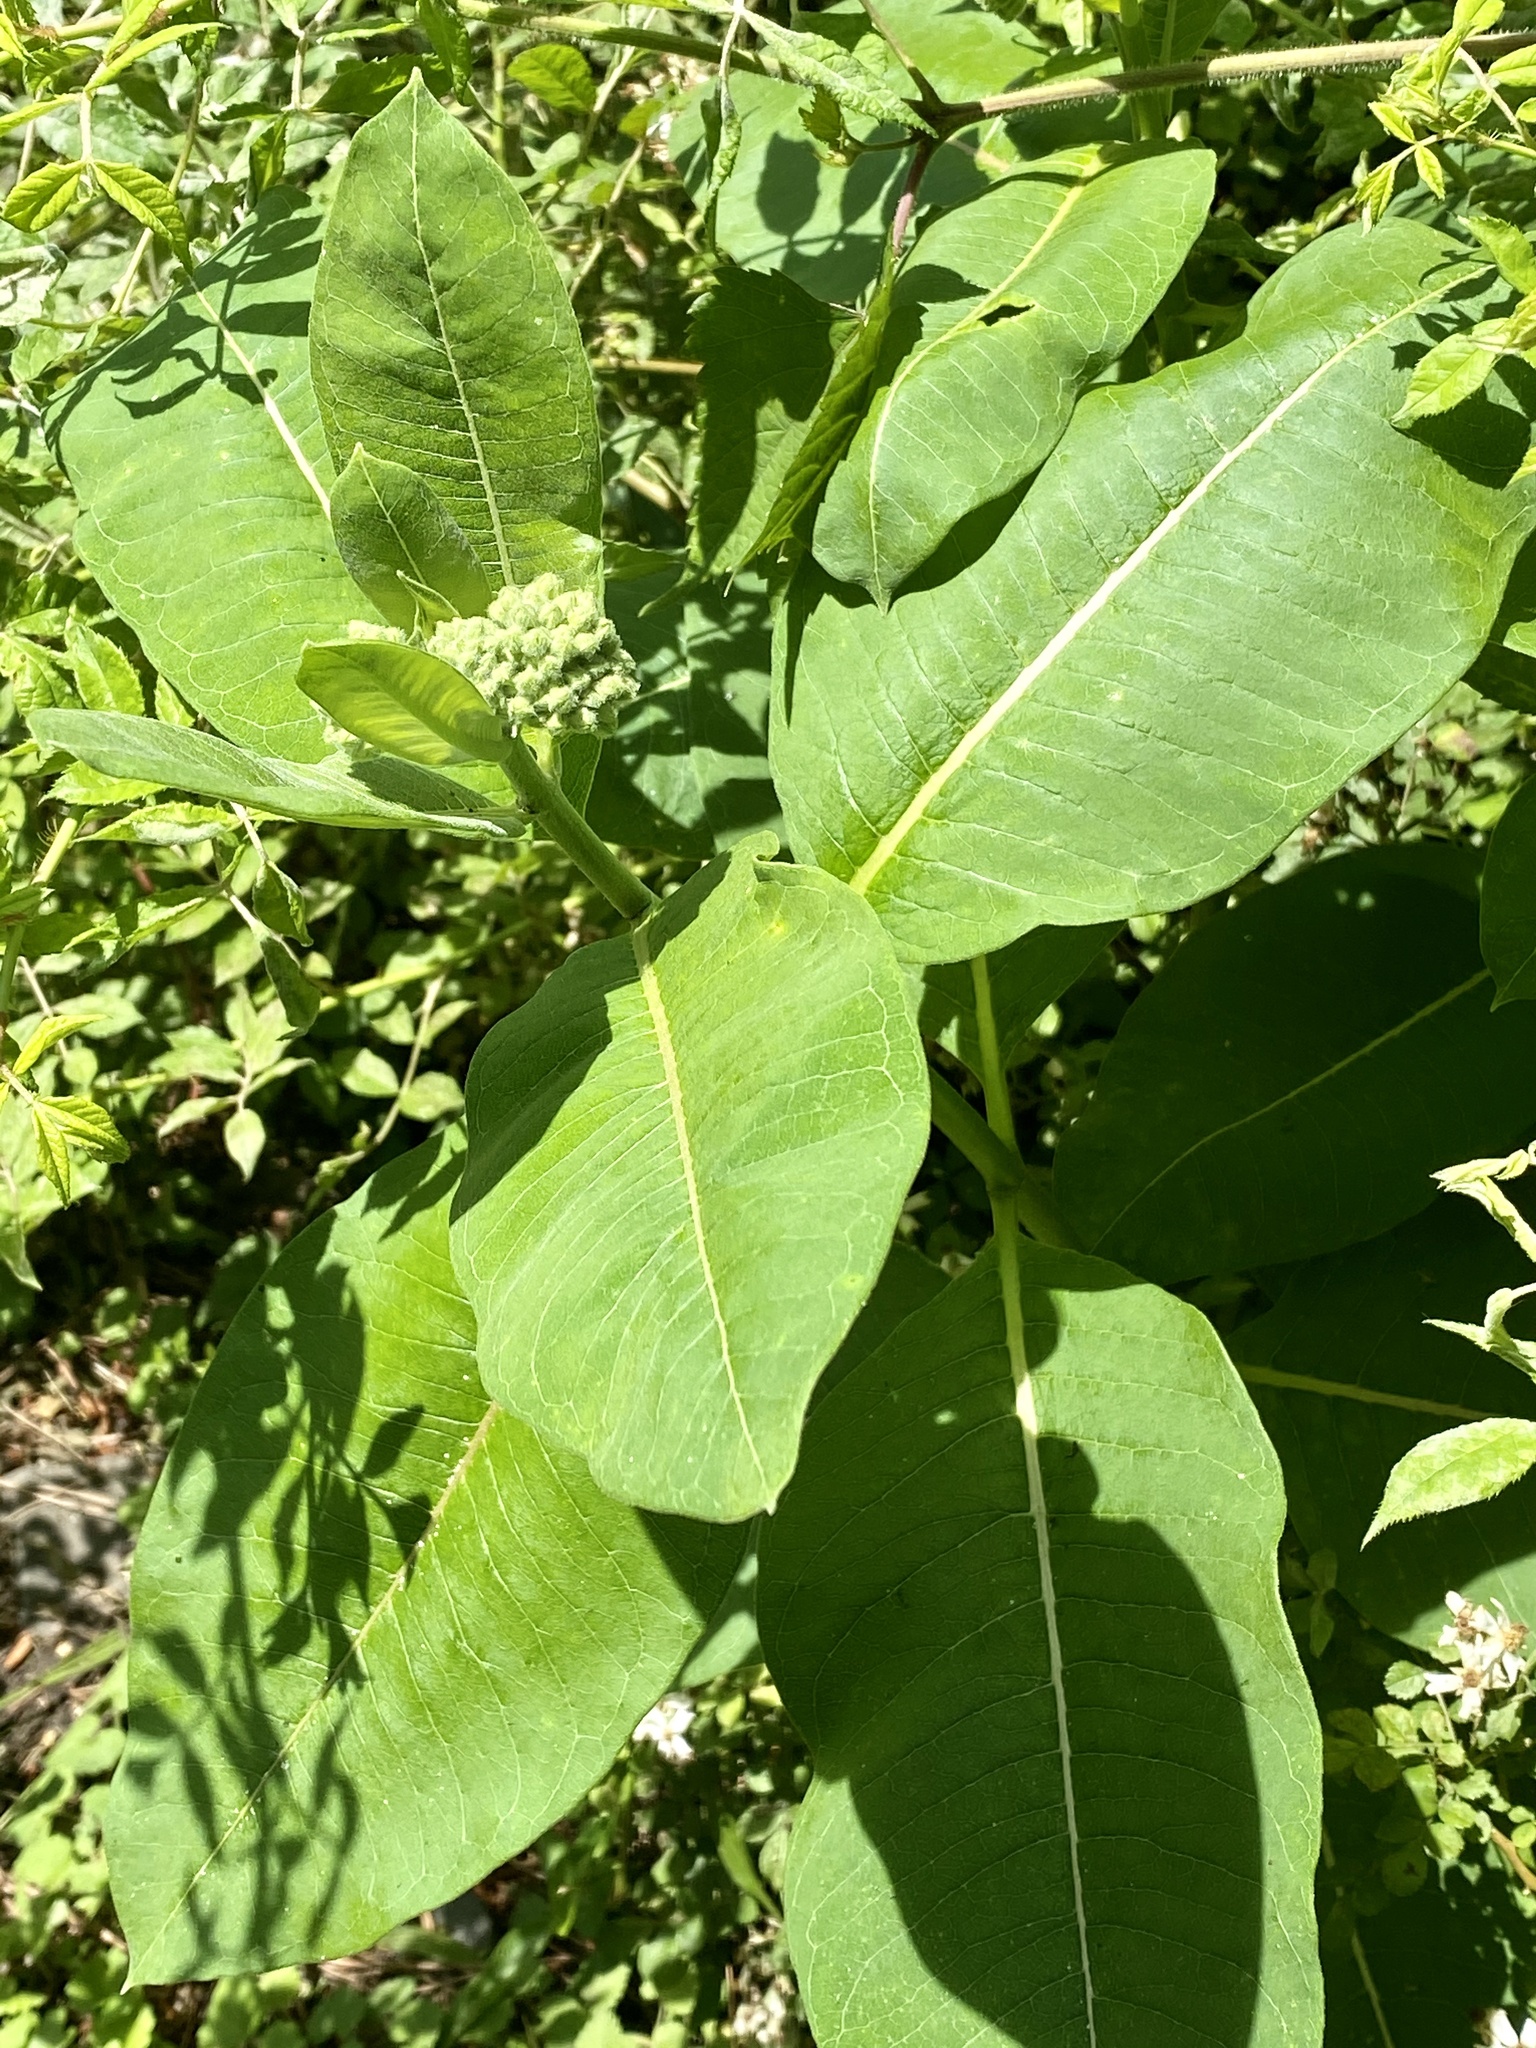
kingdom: Plantae
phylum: Tracheophyta
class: Magnoliopsida
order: Gentianales
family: Apocynaceae
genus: Asclepias
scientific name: Asclepias syriaca
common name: Common milkweed
